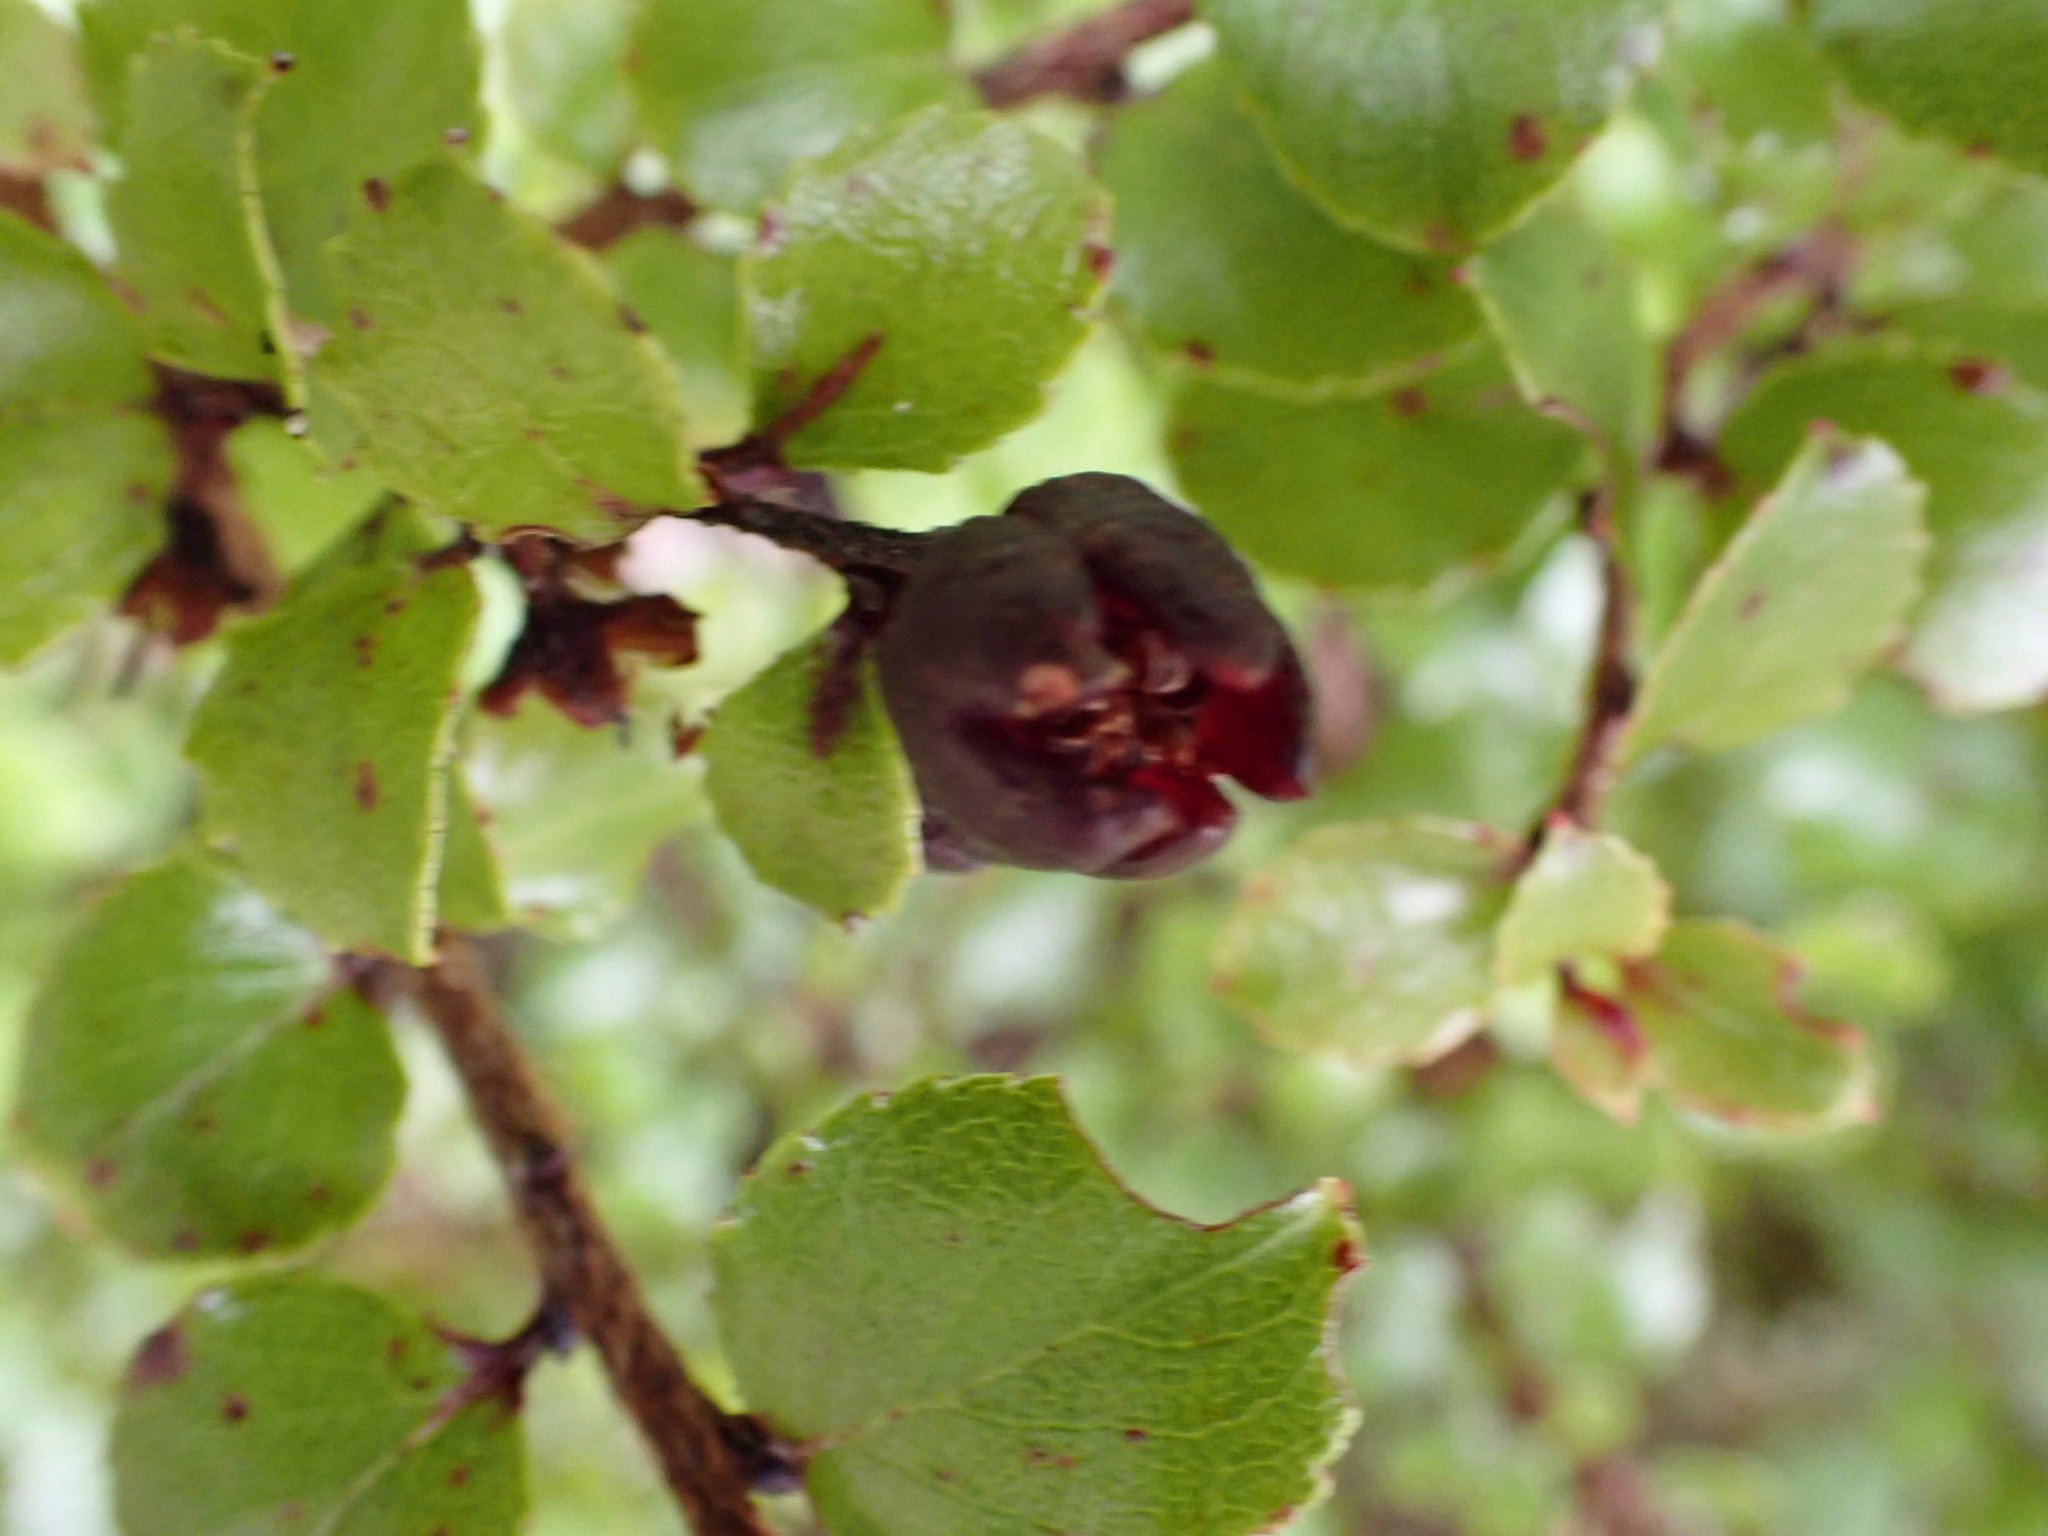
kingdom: Plantae
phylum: Tracheophyta
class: Magnoliopsida
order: Ericales
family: Ericaceae
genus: Gaultheria
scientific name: Gaultheria antipoda
